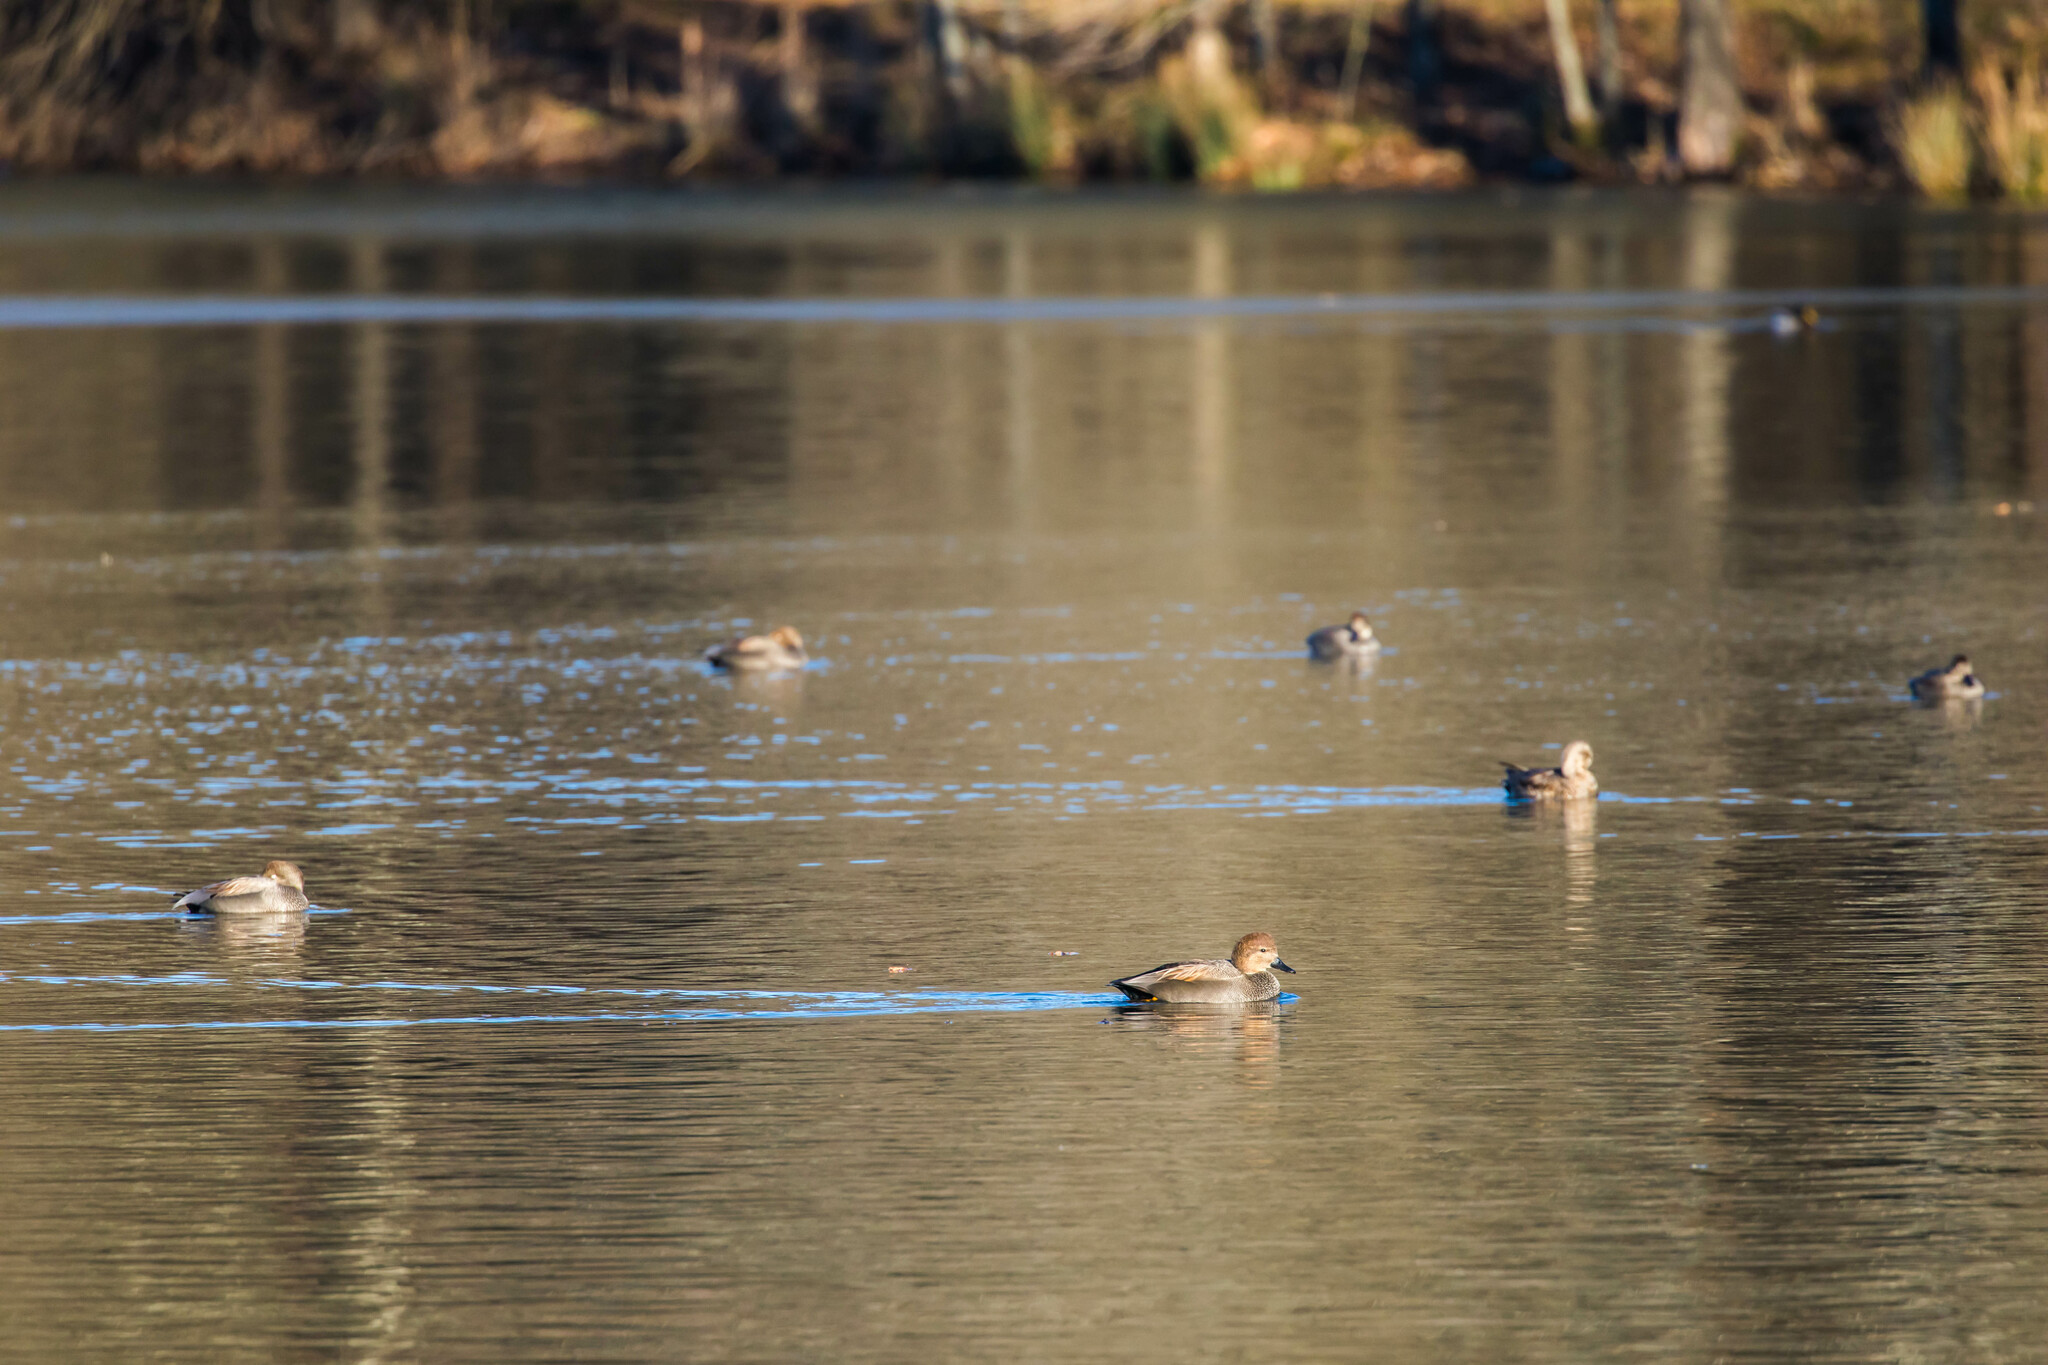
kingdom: Animalia
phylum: Chordata
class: Aves
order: Anseriformes
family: Anatidae
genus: Mareca
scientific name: Mareca strepera
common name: Gadwall
